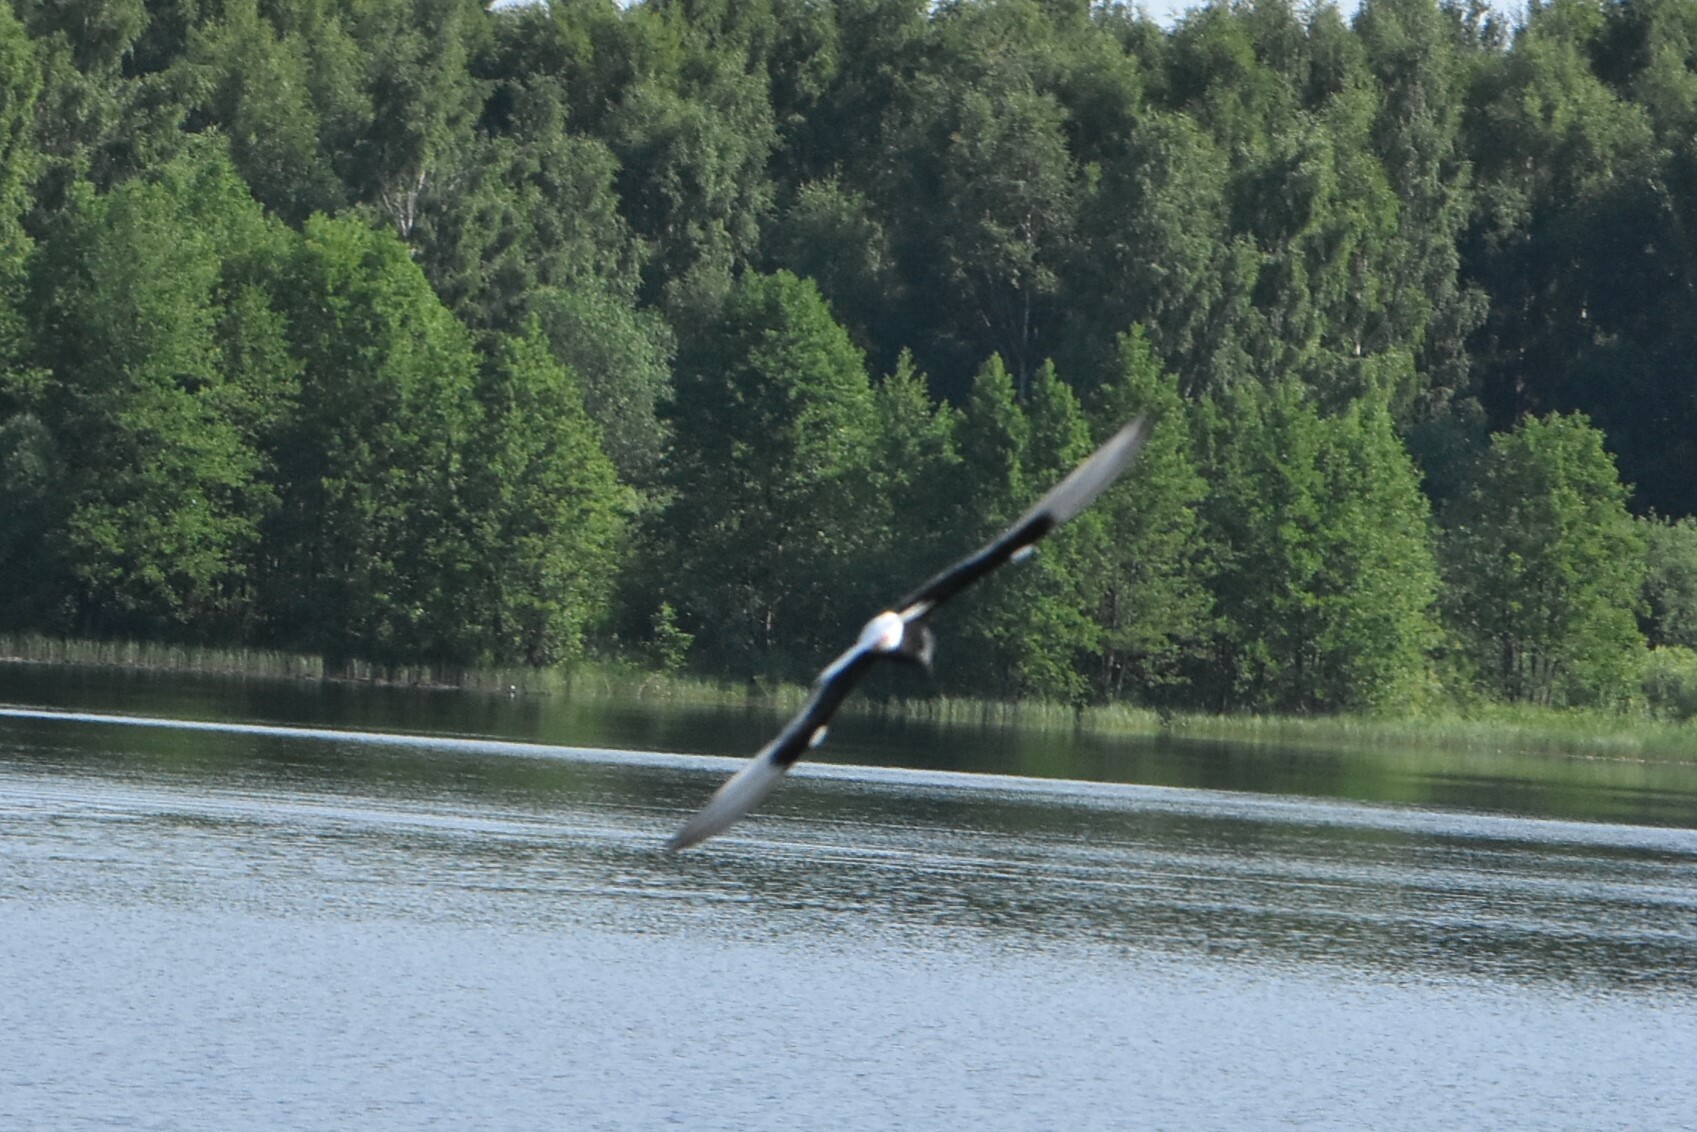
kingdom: Animalia
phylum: Chordata
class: Aves
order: Charadriiformes
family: Laridae
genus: Chlidonias
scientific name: Chlidonias leucopterus
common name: White-winged tern
